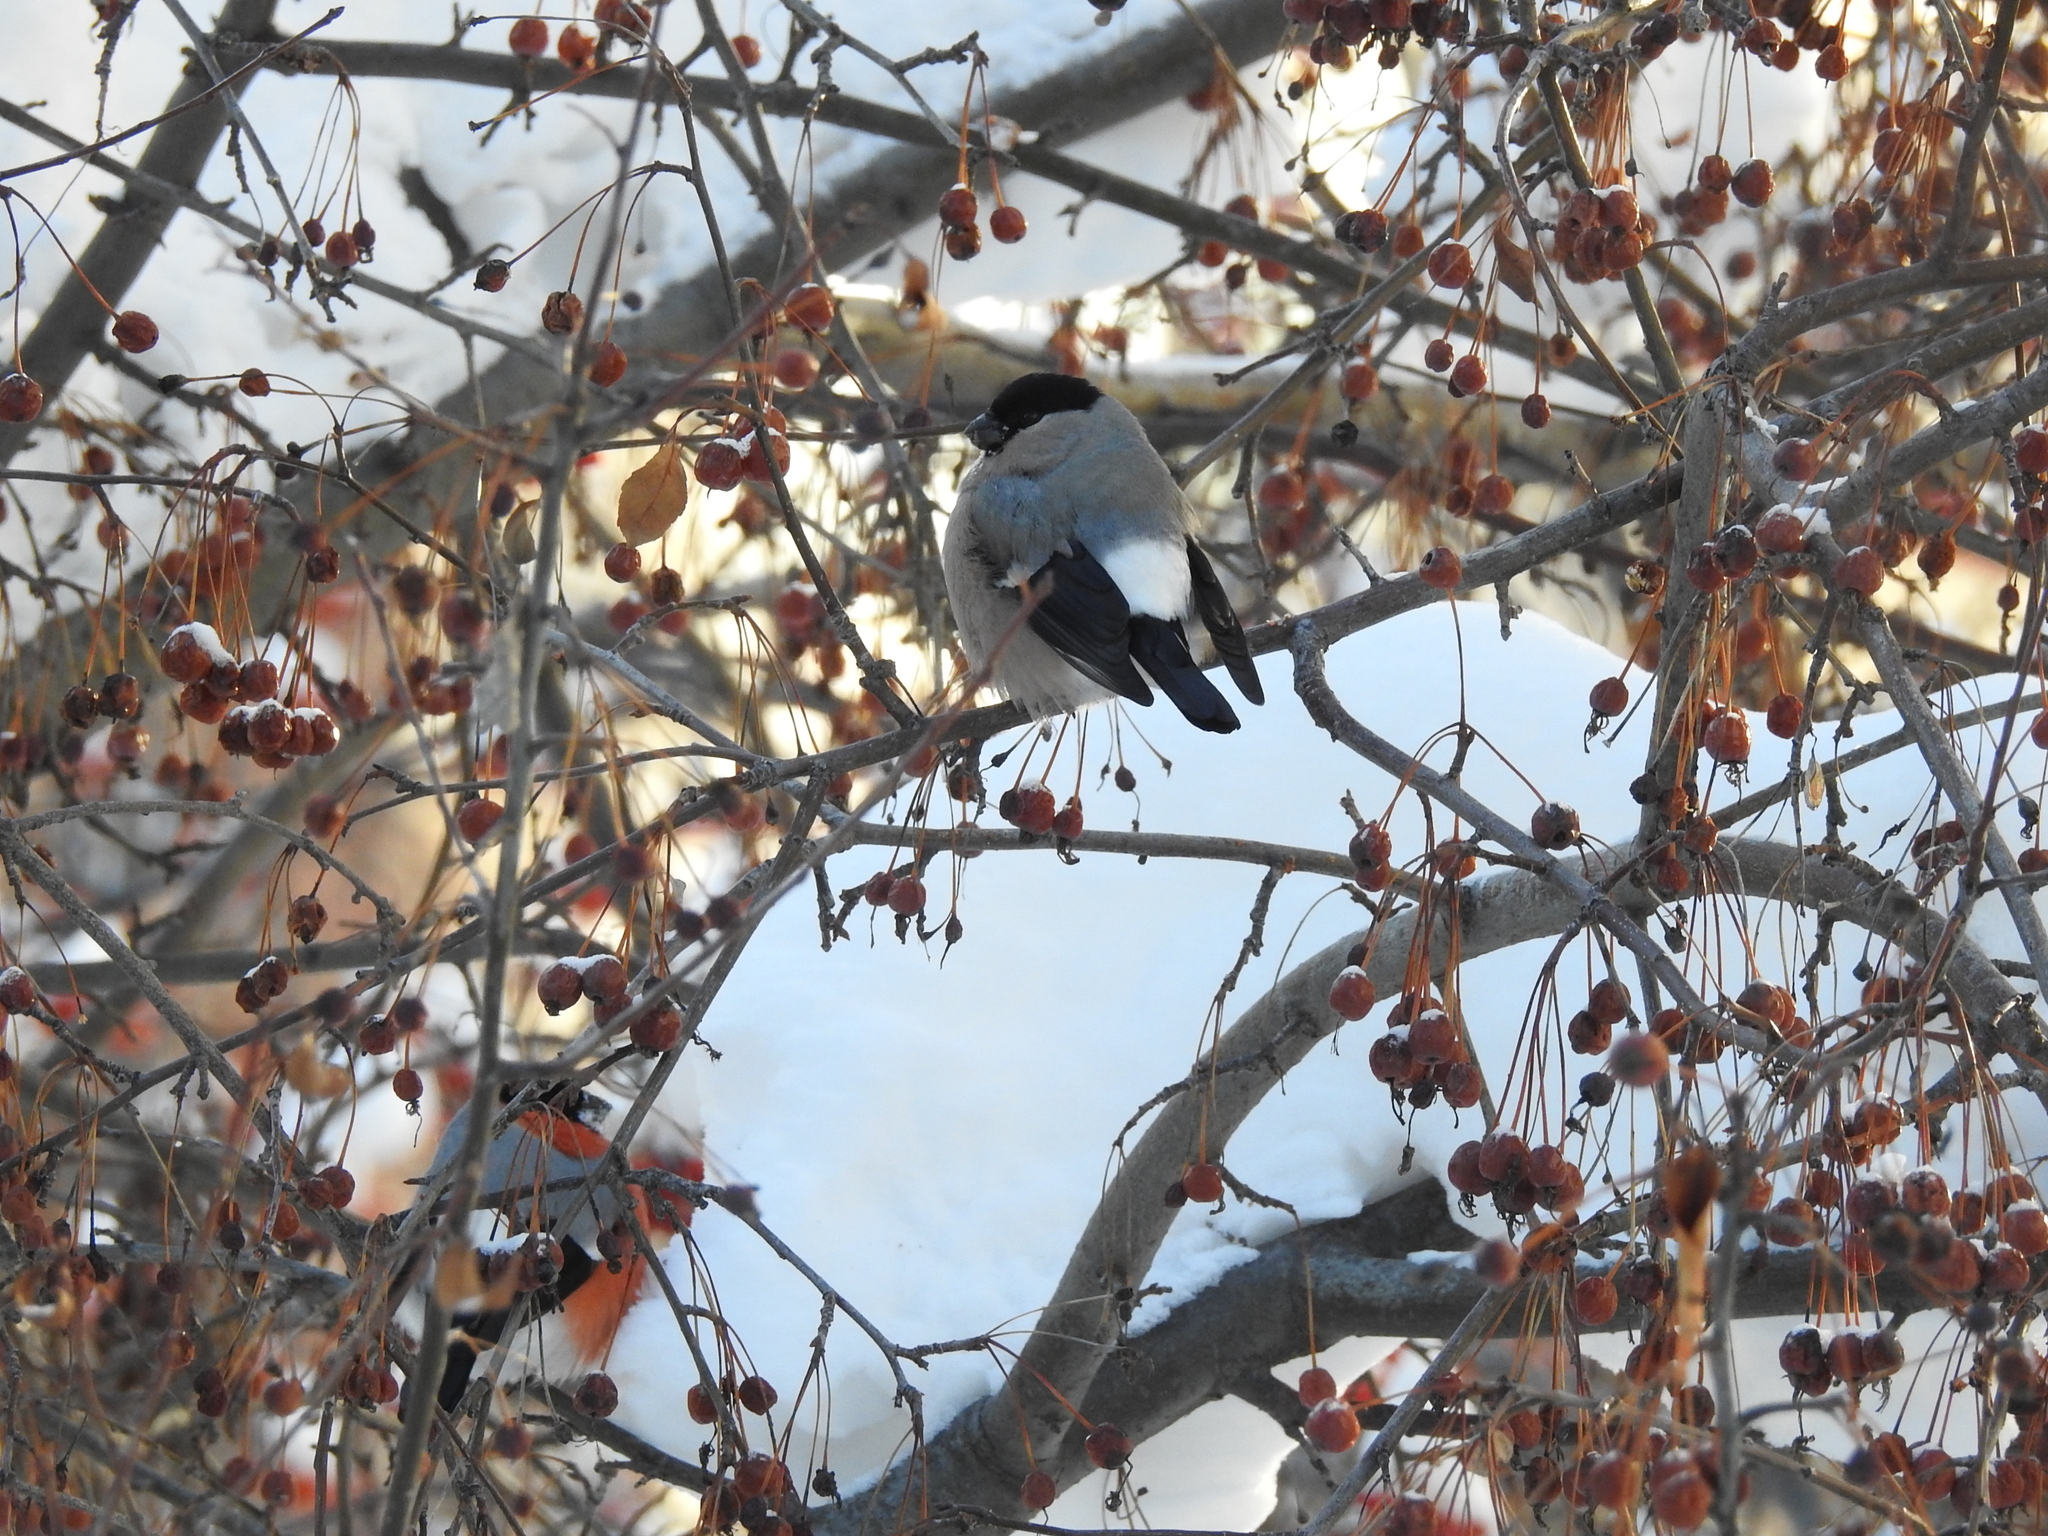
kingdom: Animalia
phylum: Chordata
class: Aves
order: Passeriformes
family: Fringillidae
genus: Pyrrhula
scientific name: Pyrrhula pyrrhula
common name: Eurasian bullfinch
